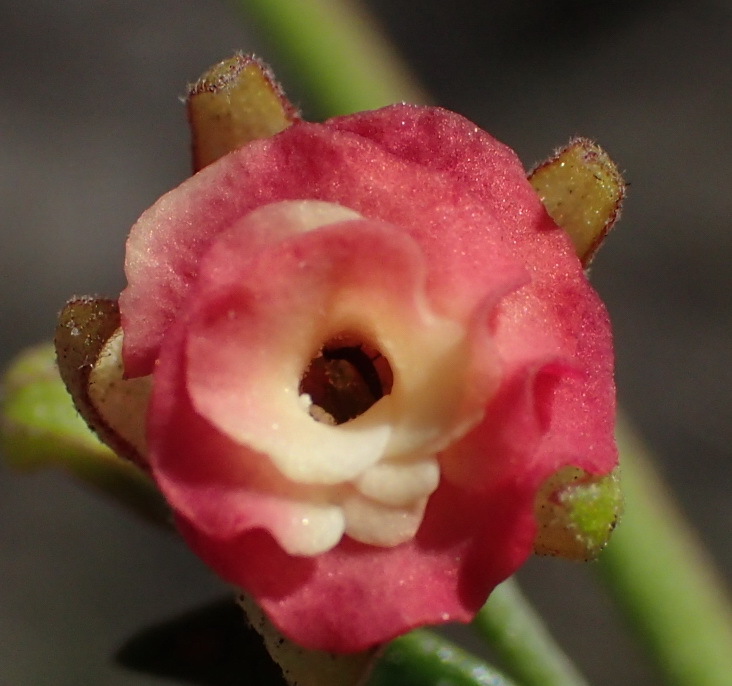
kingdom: Plantae
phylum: Tracheophyta
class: Magnoliopsida
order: Malvales
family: Malvaceae
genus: Hermannia
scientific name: Hermannia flammea
